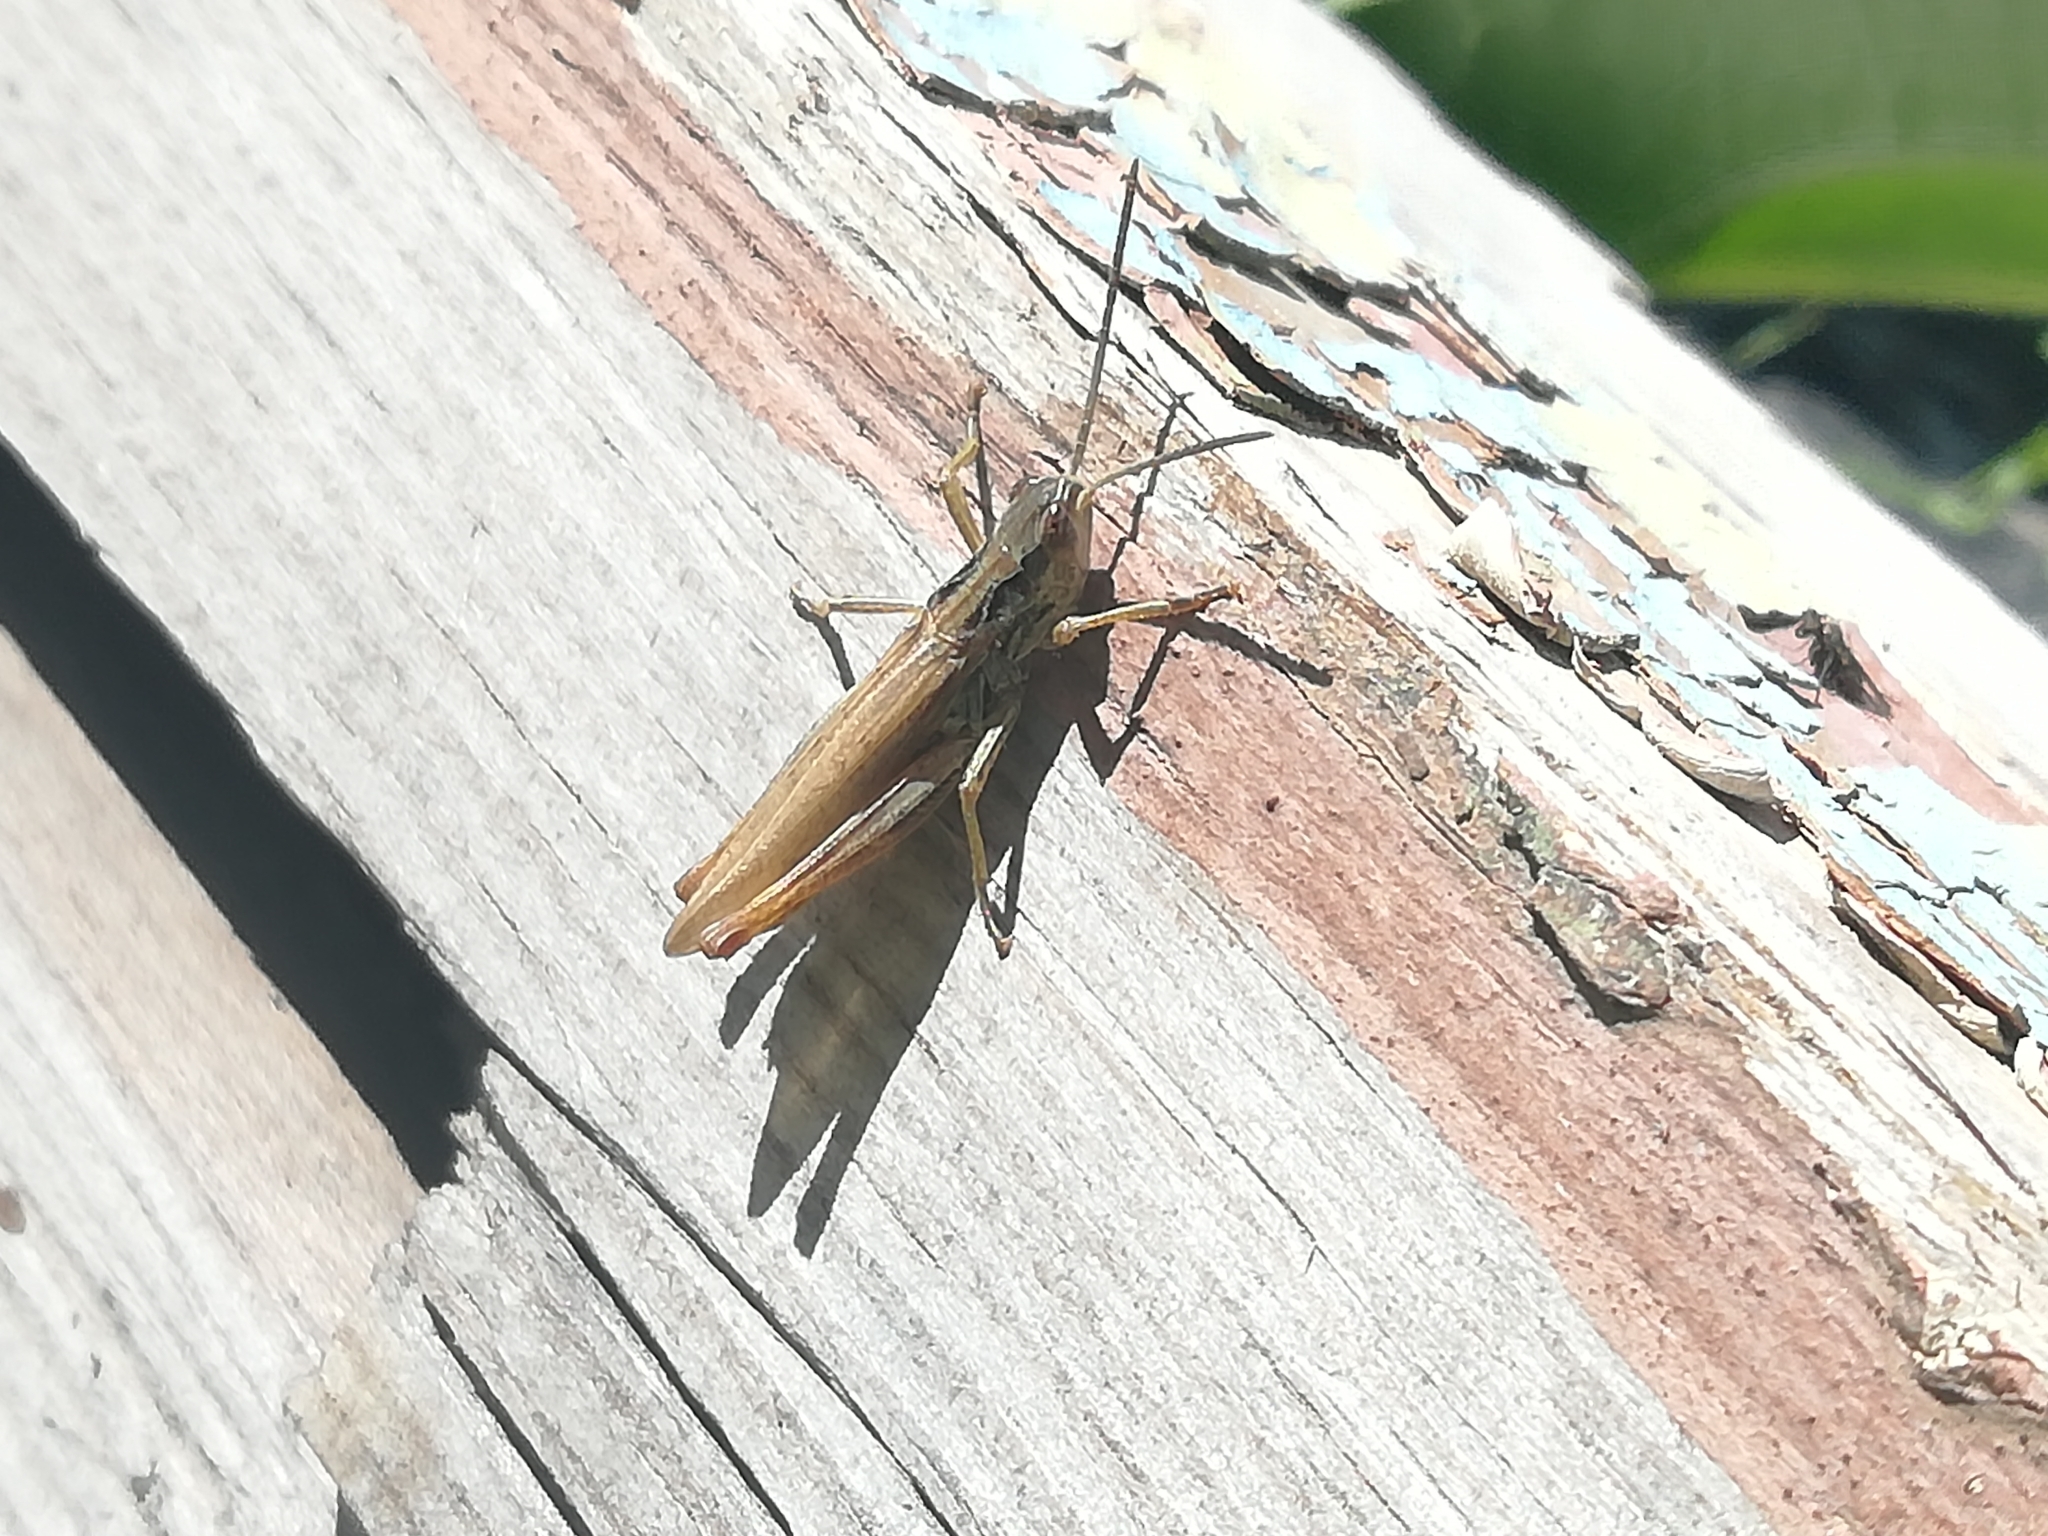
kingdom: Animalia
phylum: Arthropoda
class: Insecta
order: Orthoptera
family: Acrididae
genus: Chorthippus
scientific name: Chorthippus apricarius
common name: Upland field grasshopper
